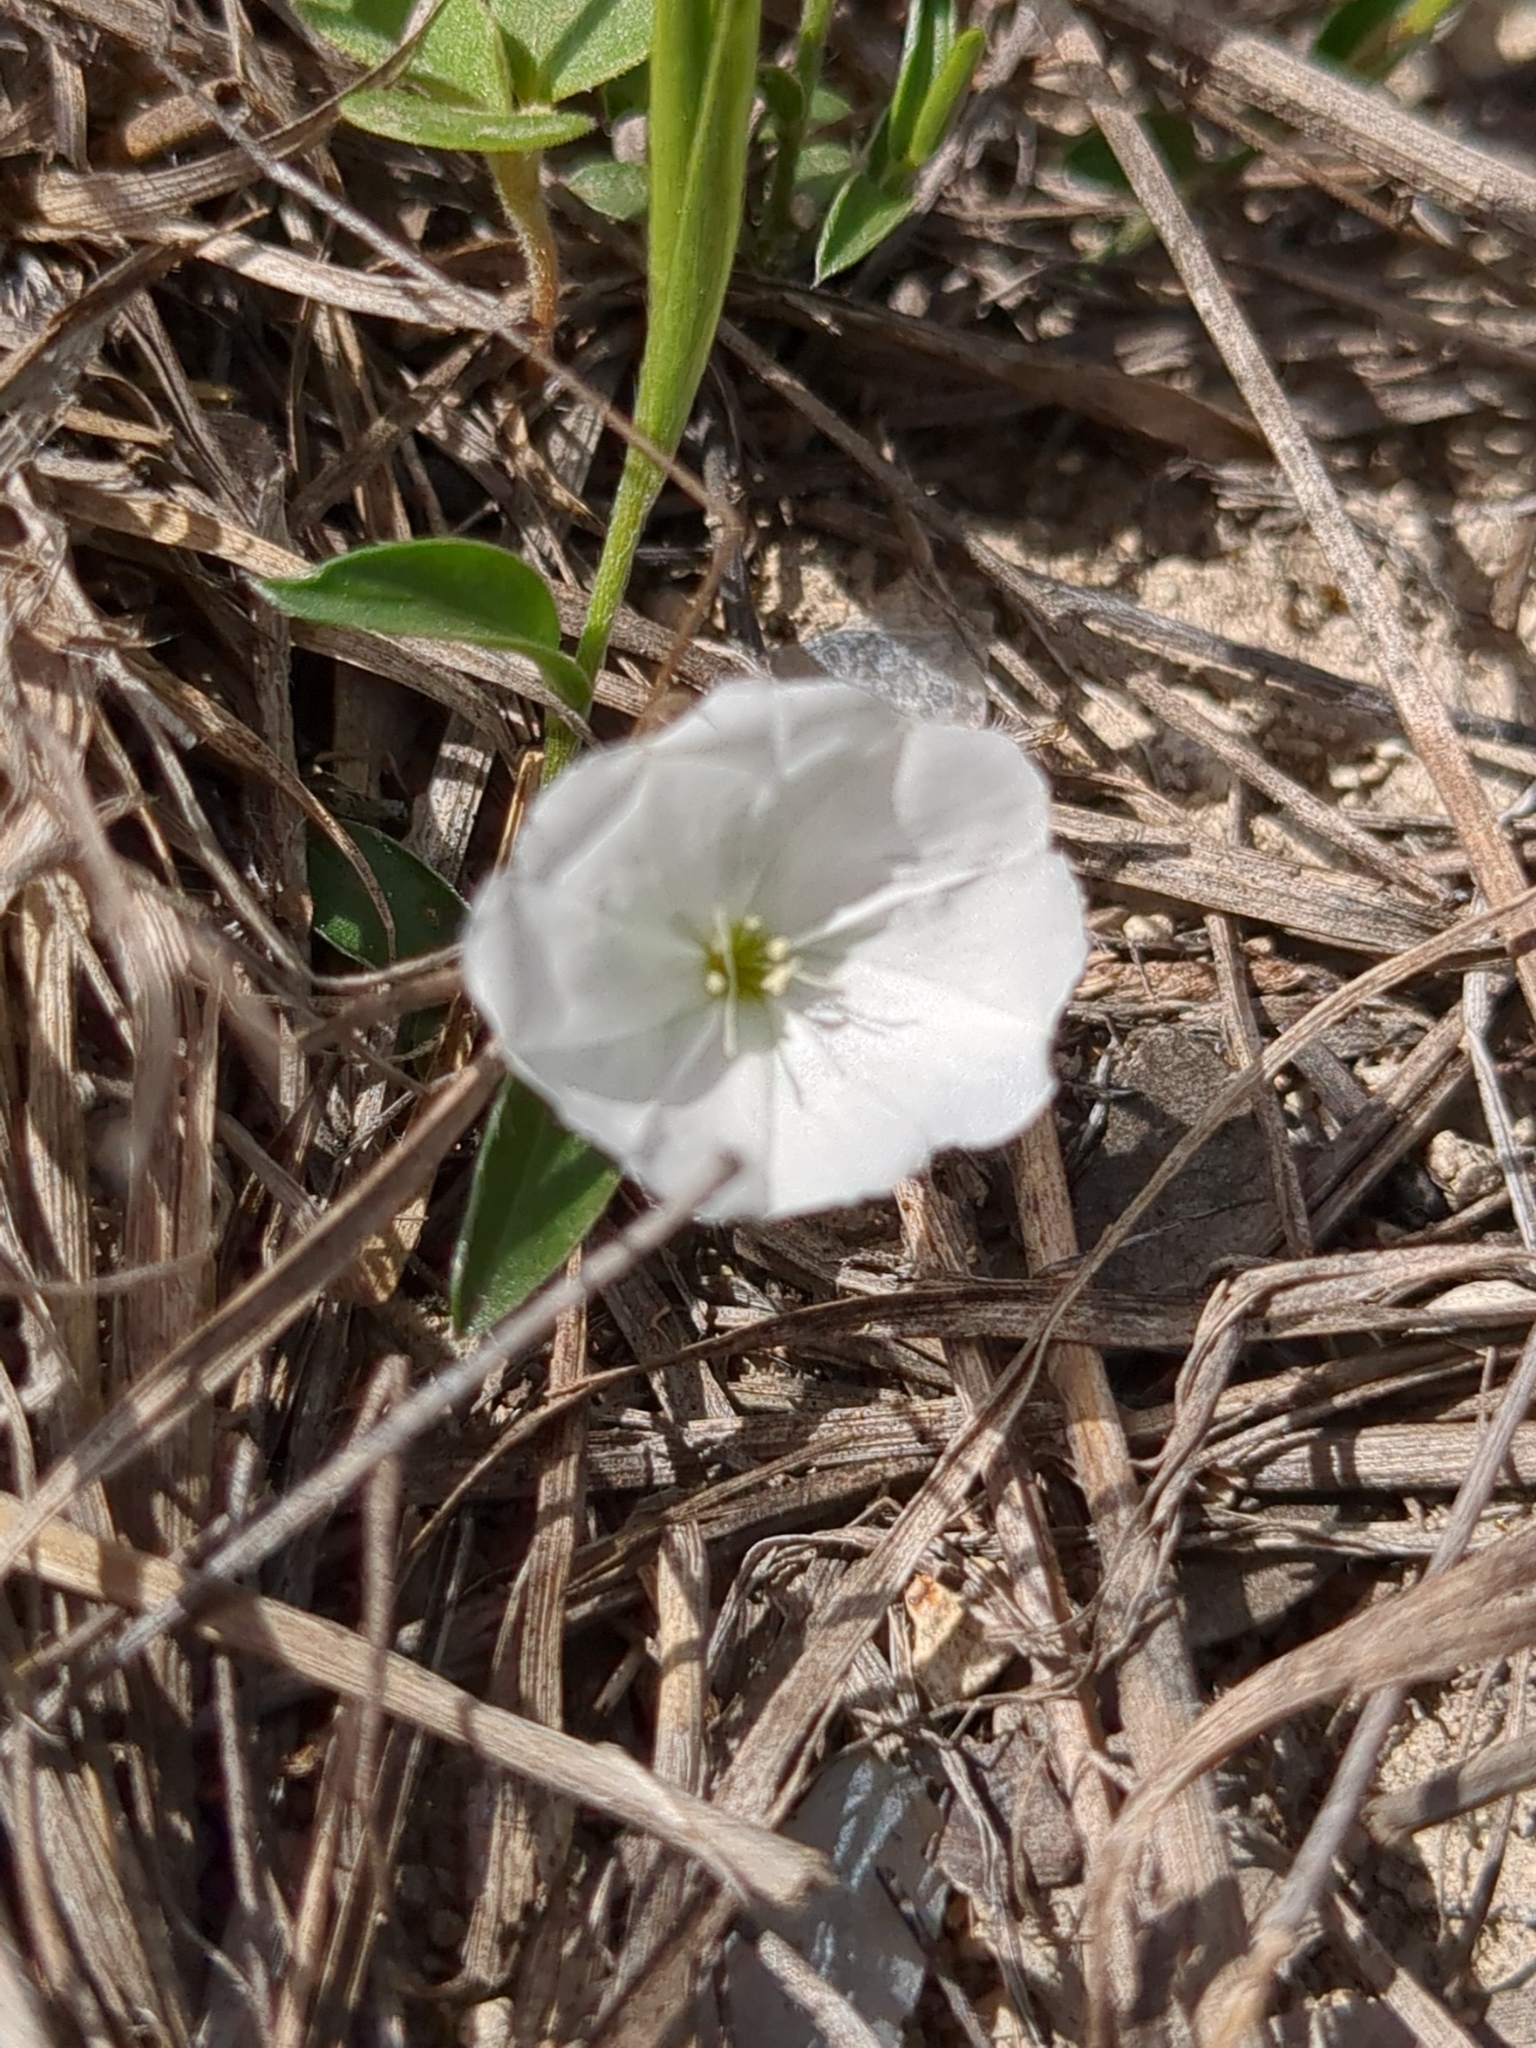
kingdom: Plantae
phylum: Tracheophyta
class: Magnoliopsida
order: Solanales
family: Convolvulaceae
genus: Evolvulus
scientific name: Evolvulus sericeus
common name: Blue dots
